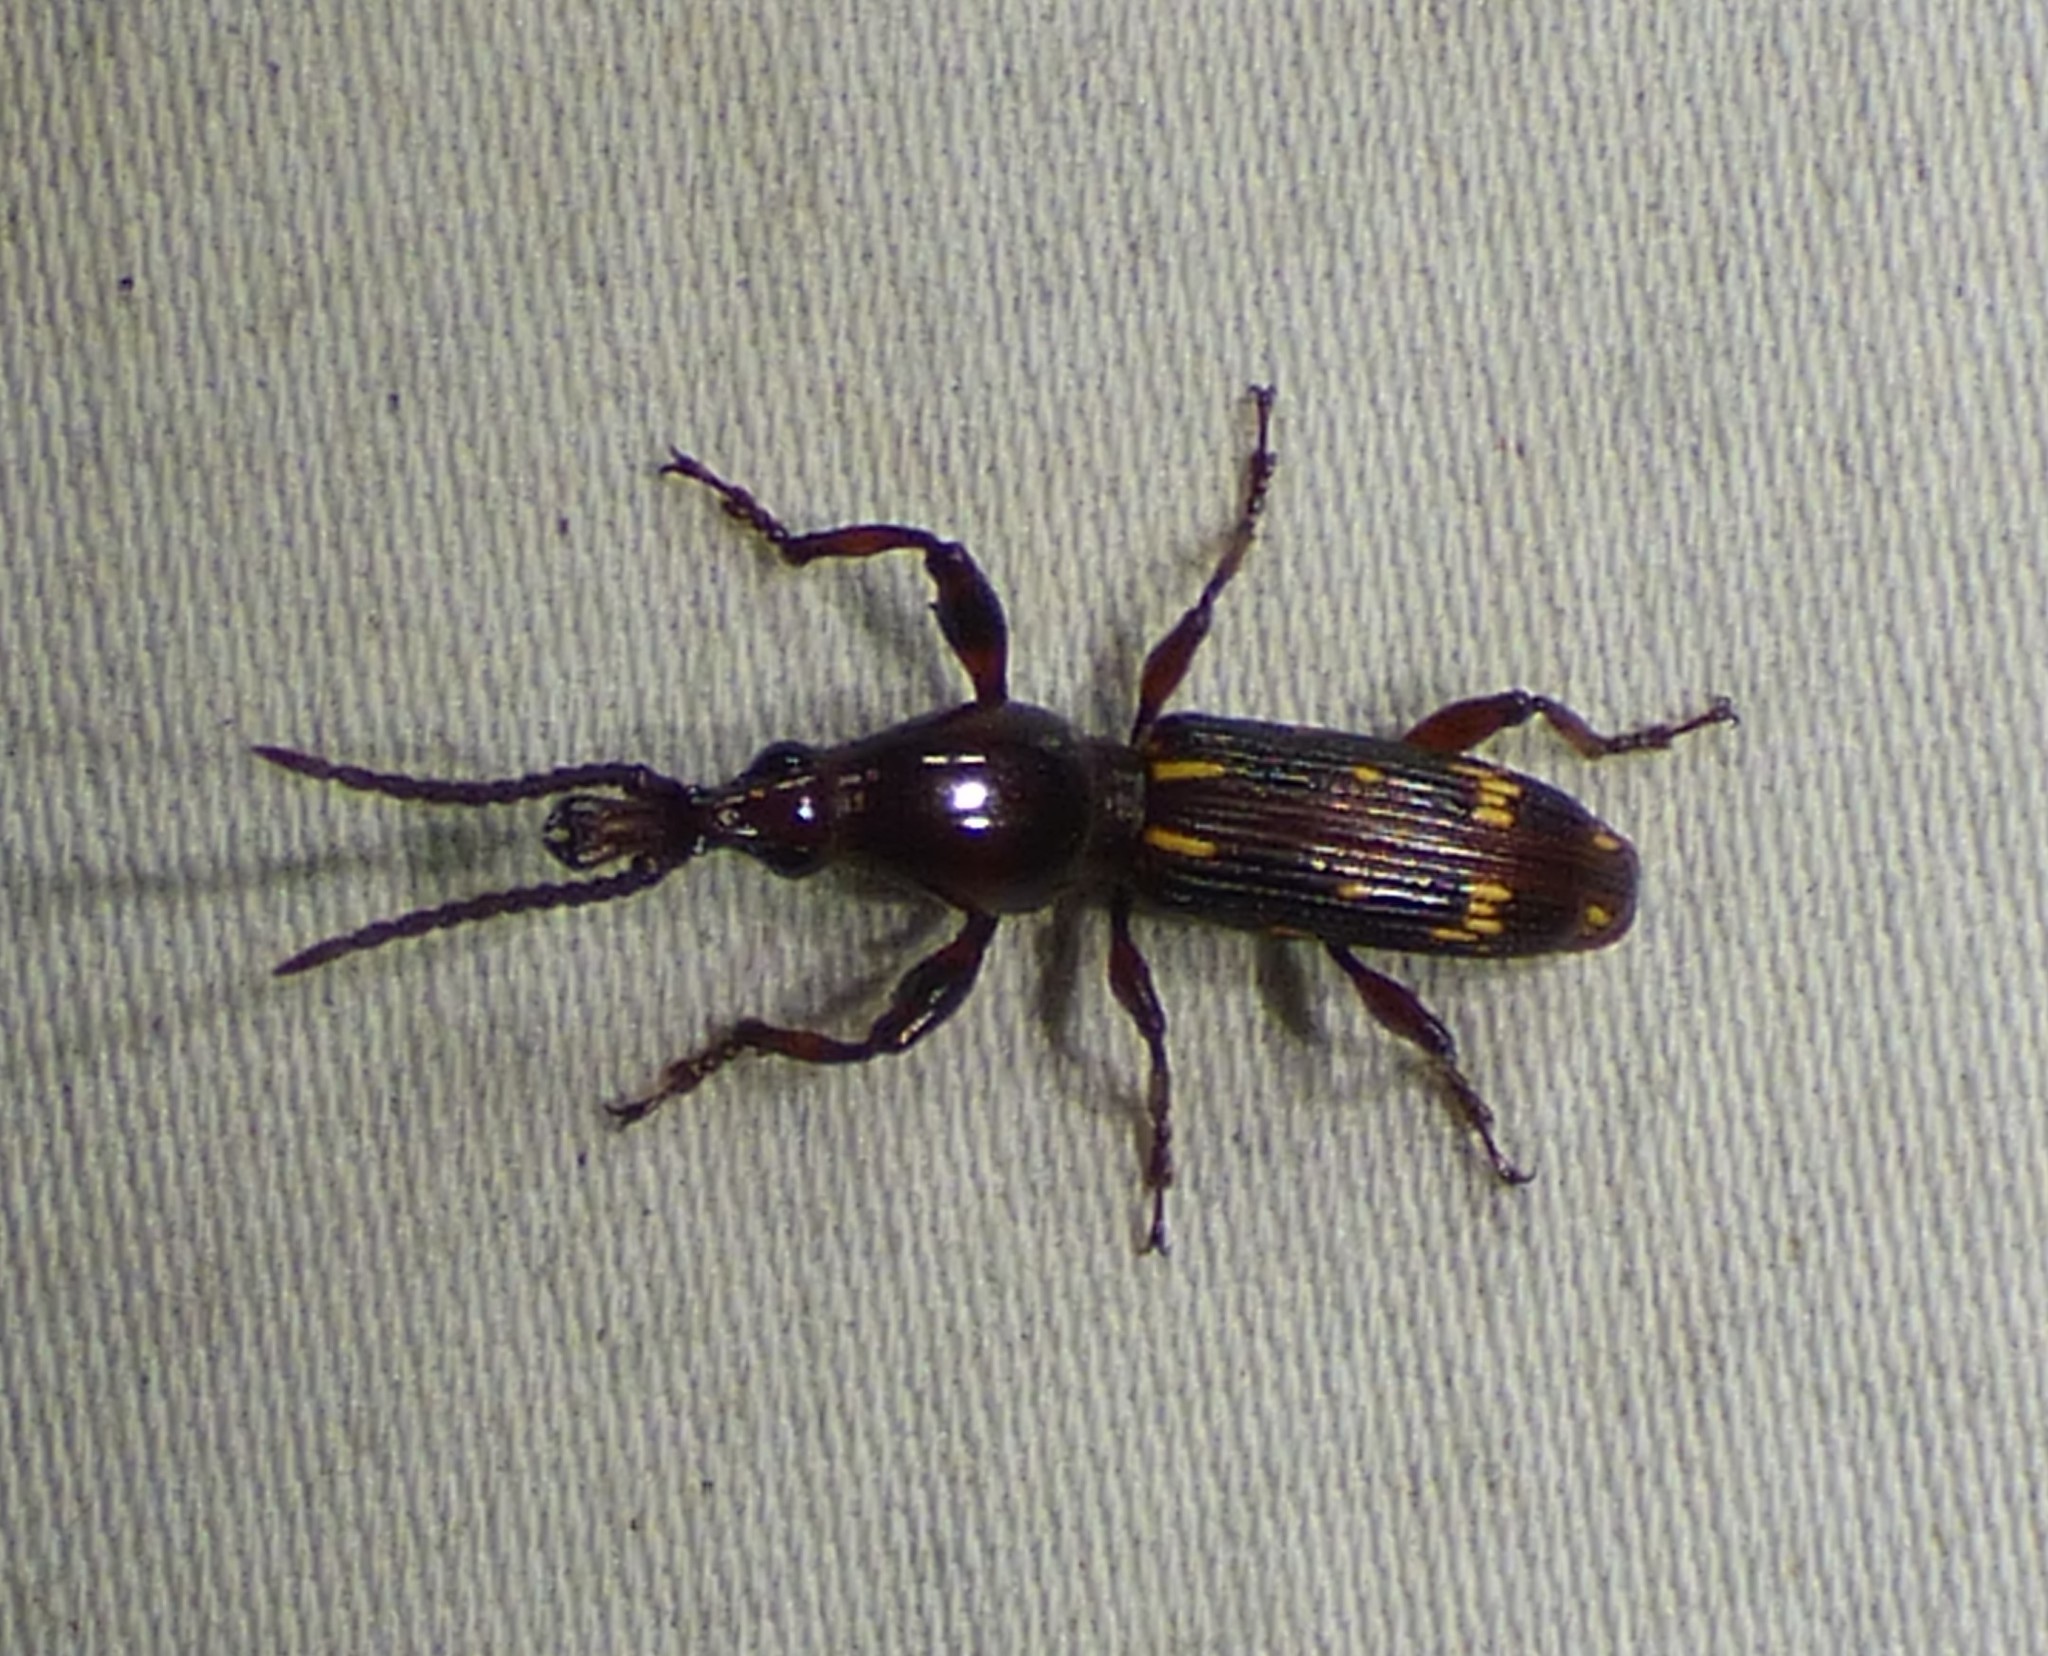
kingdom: Animalia
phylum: Arthropoda
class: Insecta
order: Coleoptera
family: Brentidae
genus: Arrenodes
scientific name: Arrenodes minutus
